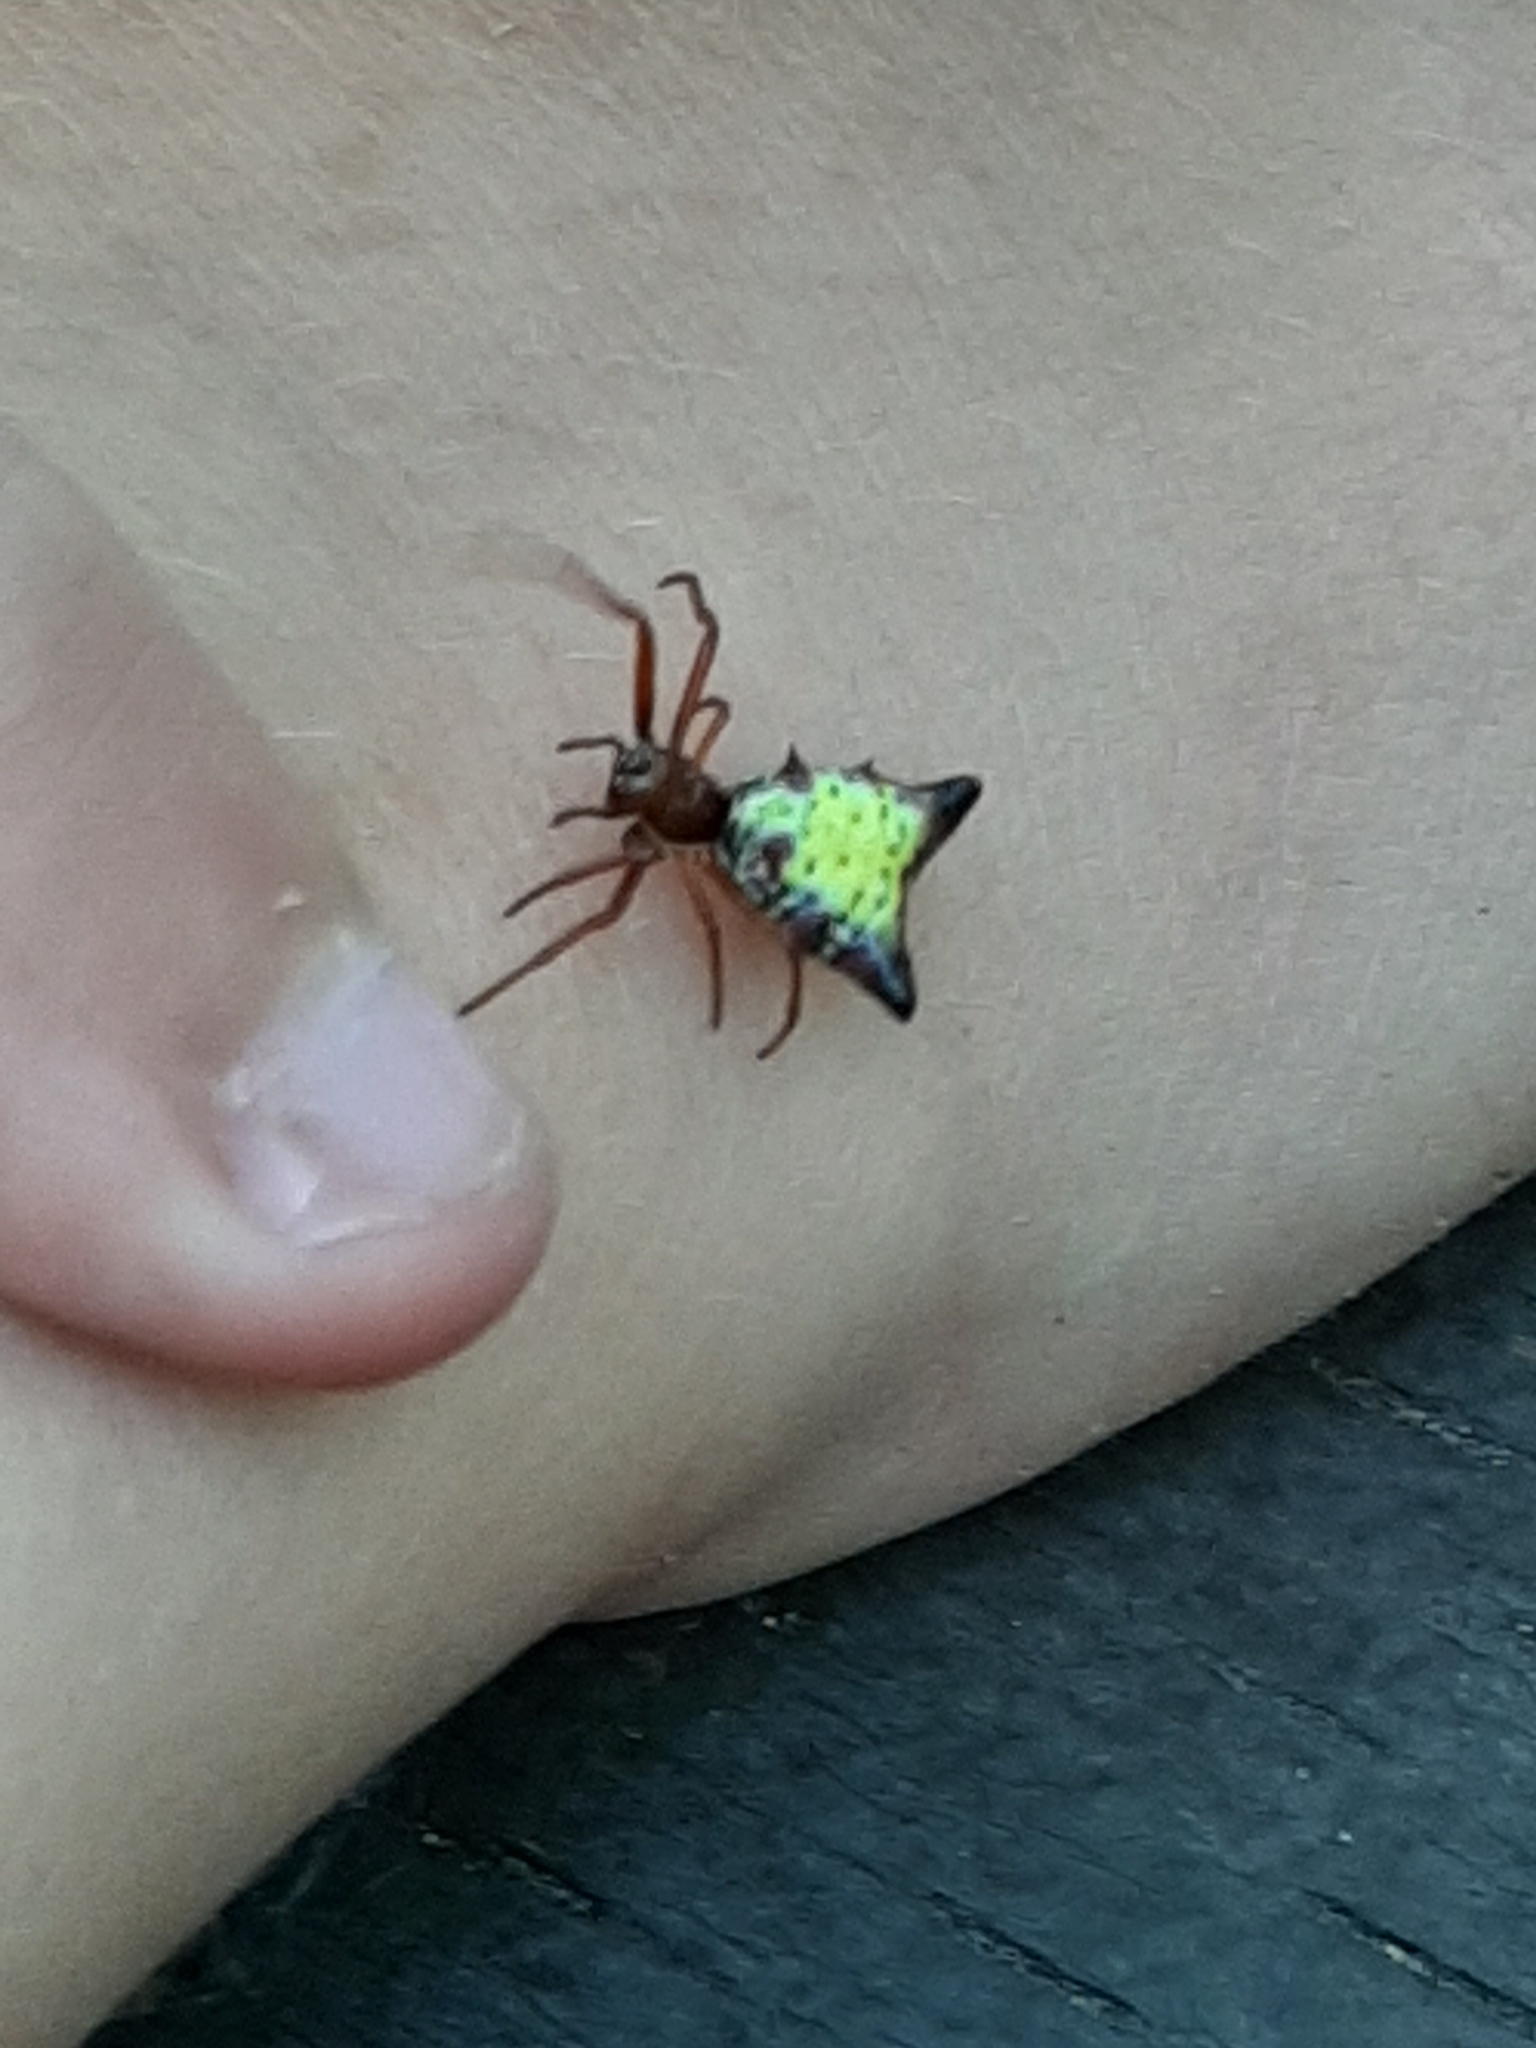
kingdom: Animalia
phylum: Arthropoda
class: Arachnida
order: Araneae
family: Araneidae
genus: Micrathena
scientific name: Micrathena sagittata
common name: Orb weavers
